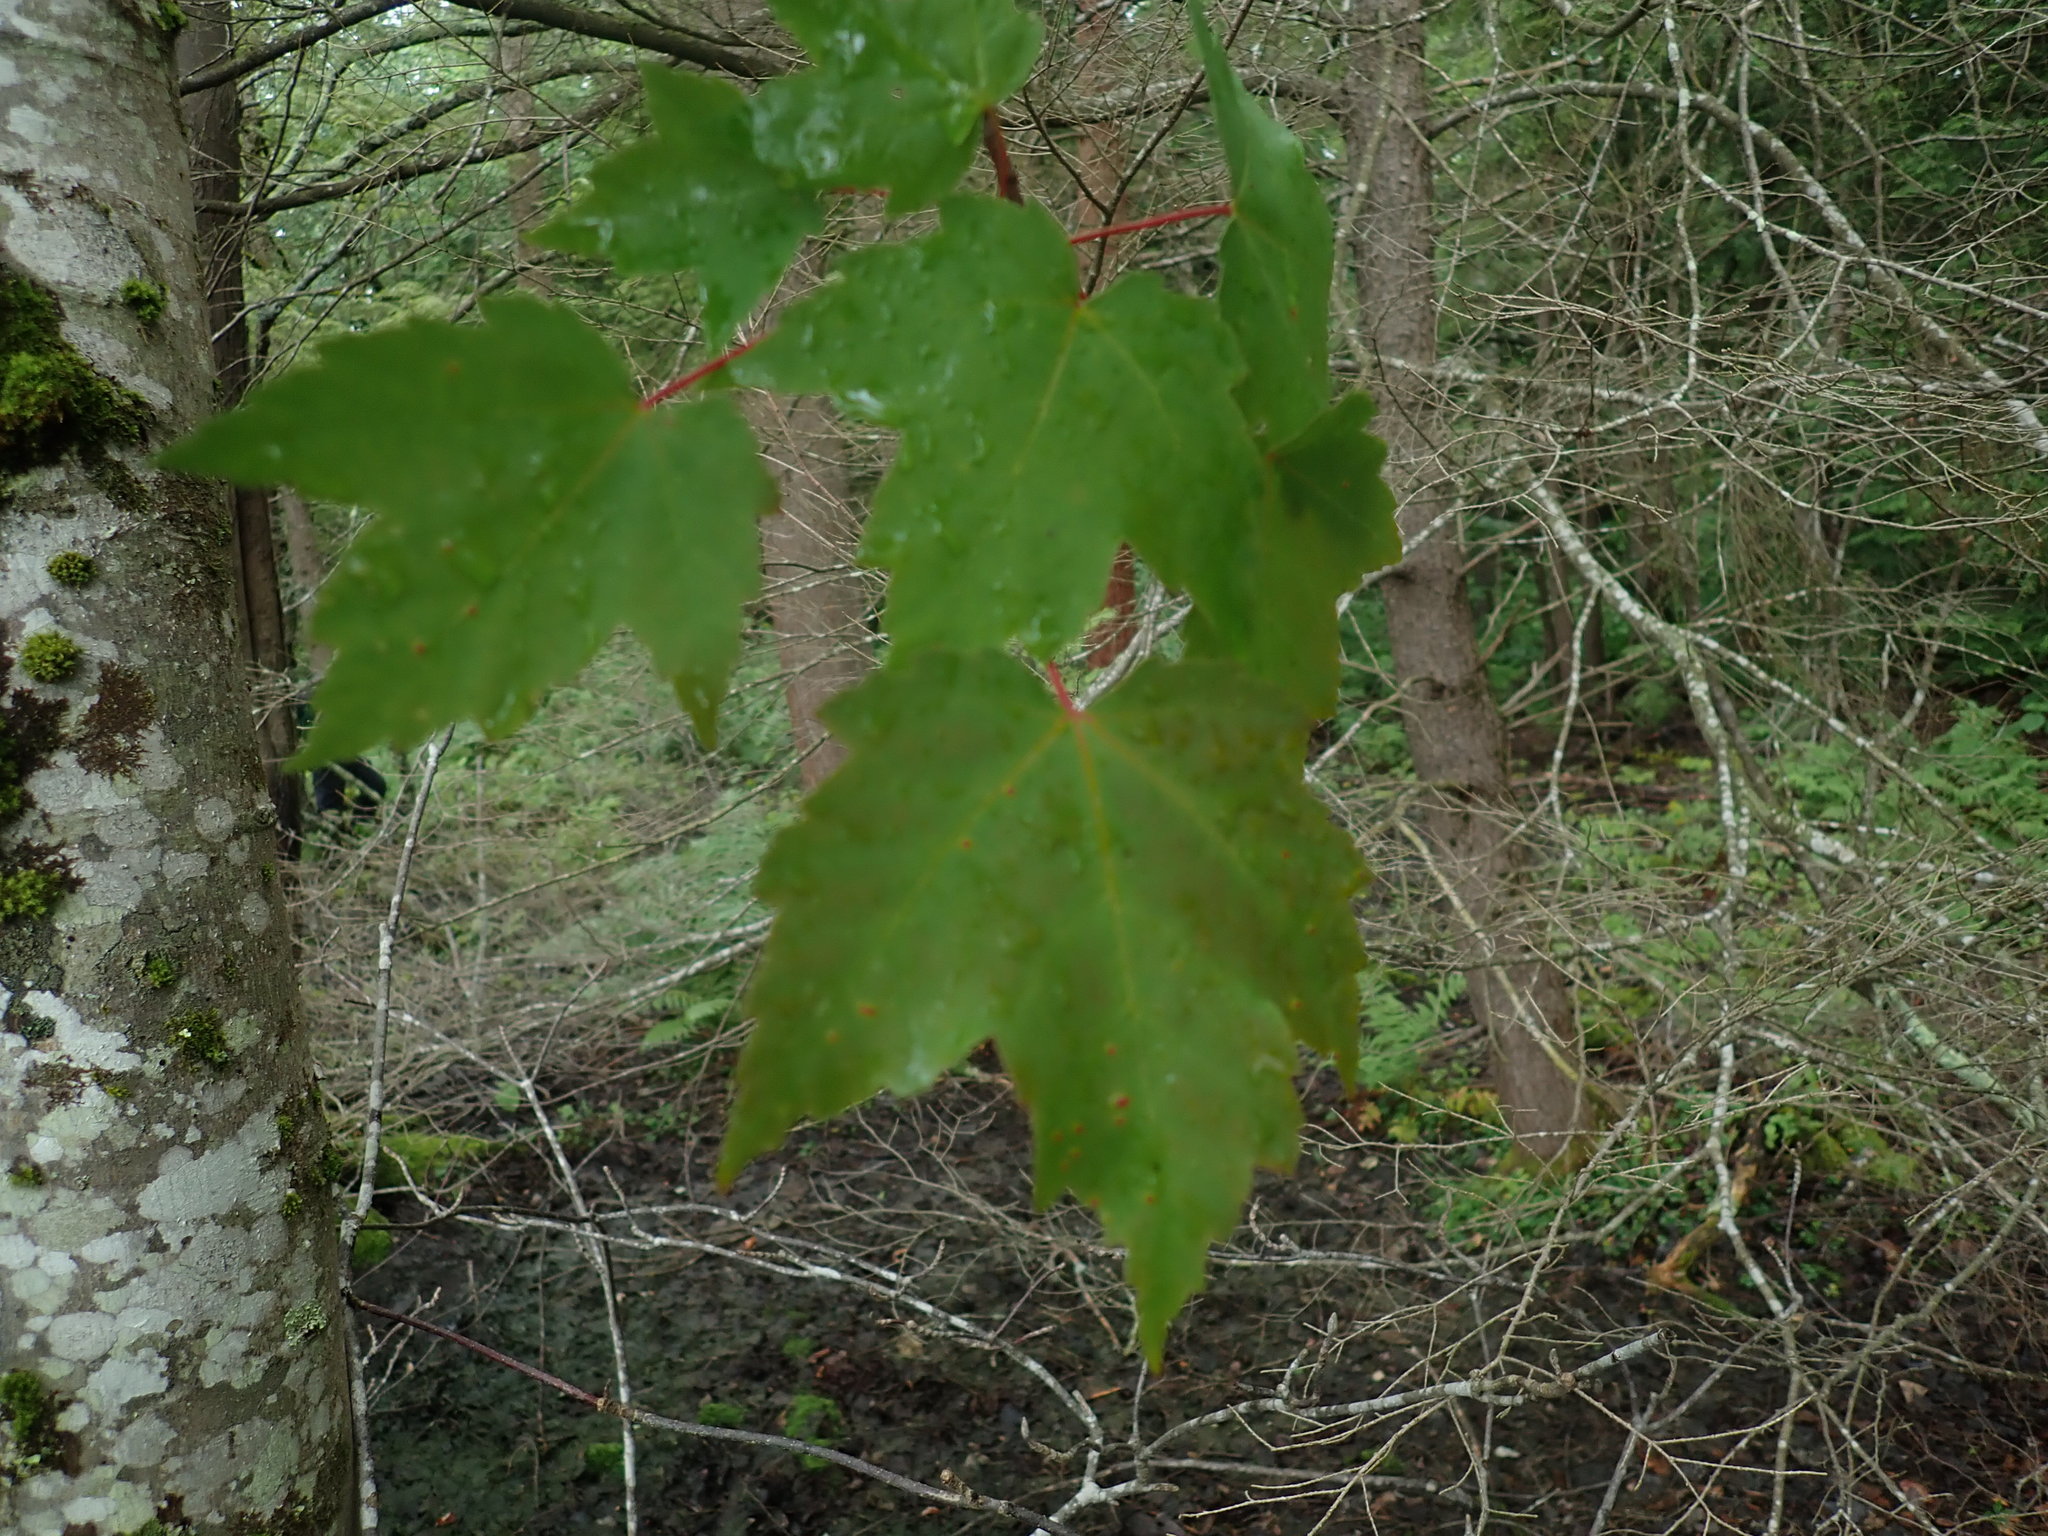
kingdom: Plantae
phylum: Tracheophyta
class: Magnoliopsida
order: Sapindales
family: Sapindaceae
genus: Acer
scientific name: Acer rubrum
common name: Red maple
